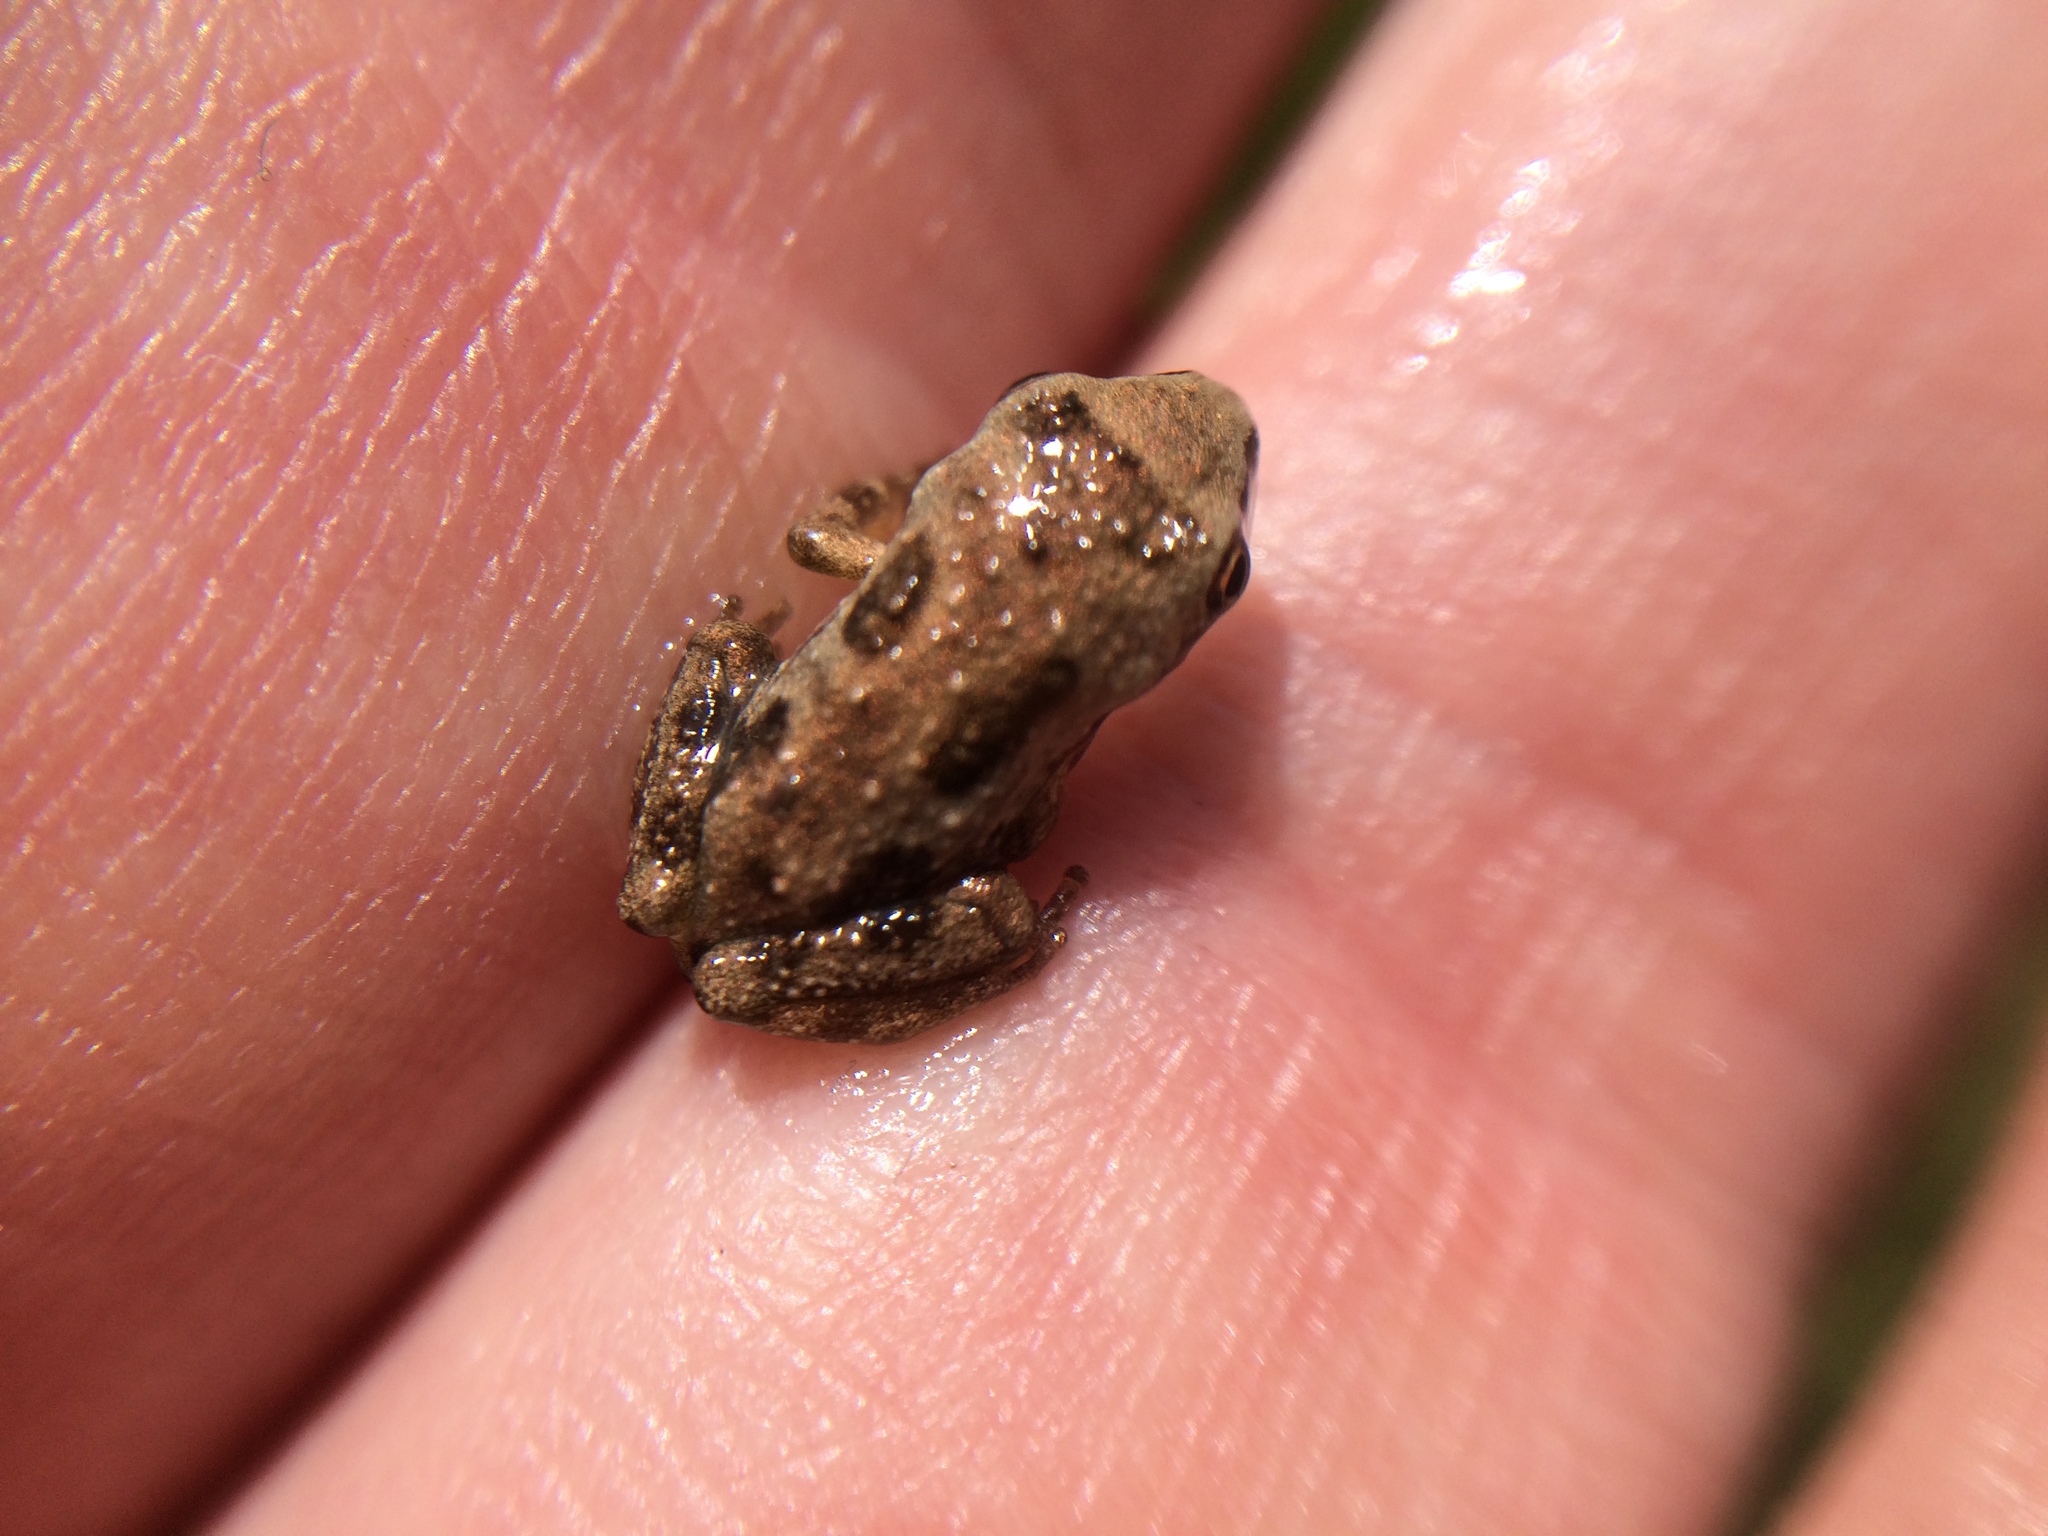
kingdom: Animalia
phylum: Chordata
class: Amphibia
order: Anura
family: Hylidae
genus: Pseudacris
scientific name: Pseudacris regilla
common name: Pacific chorus frog
